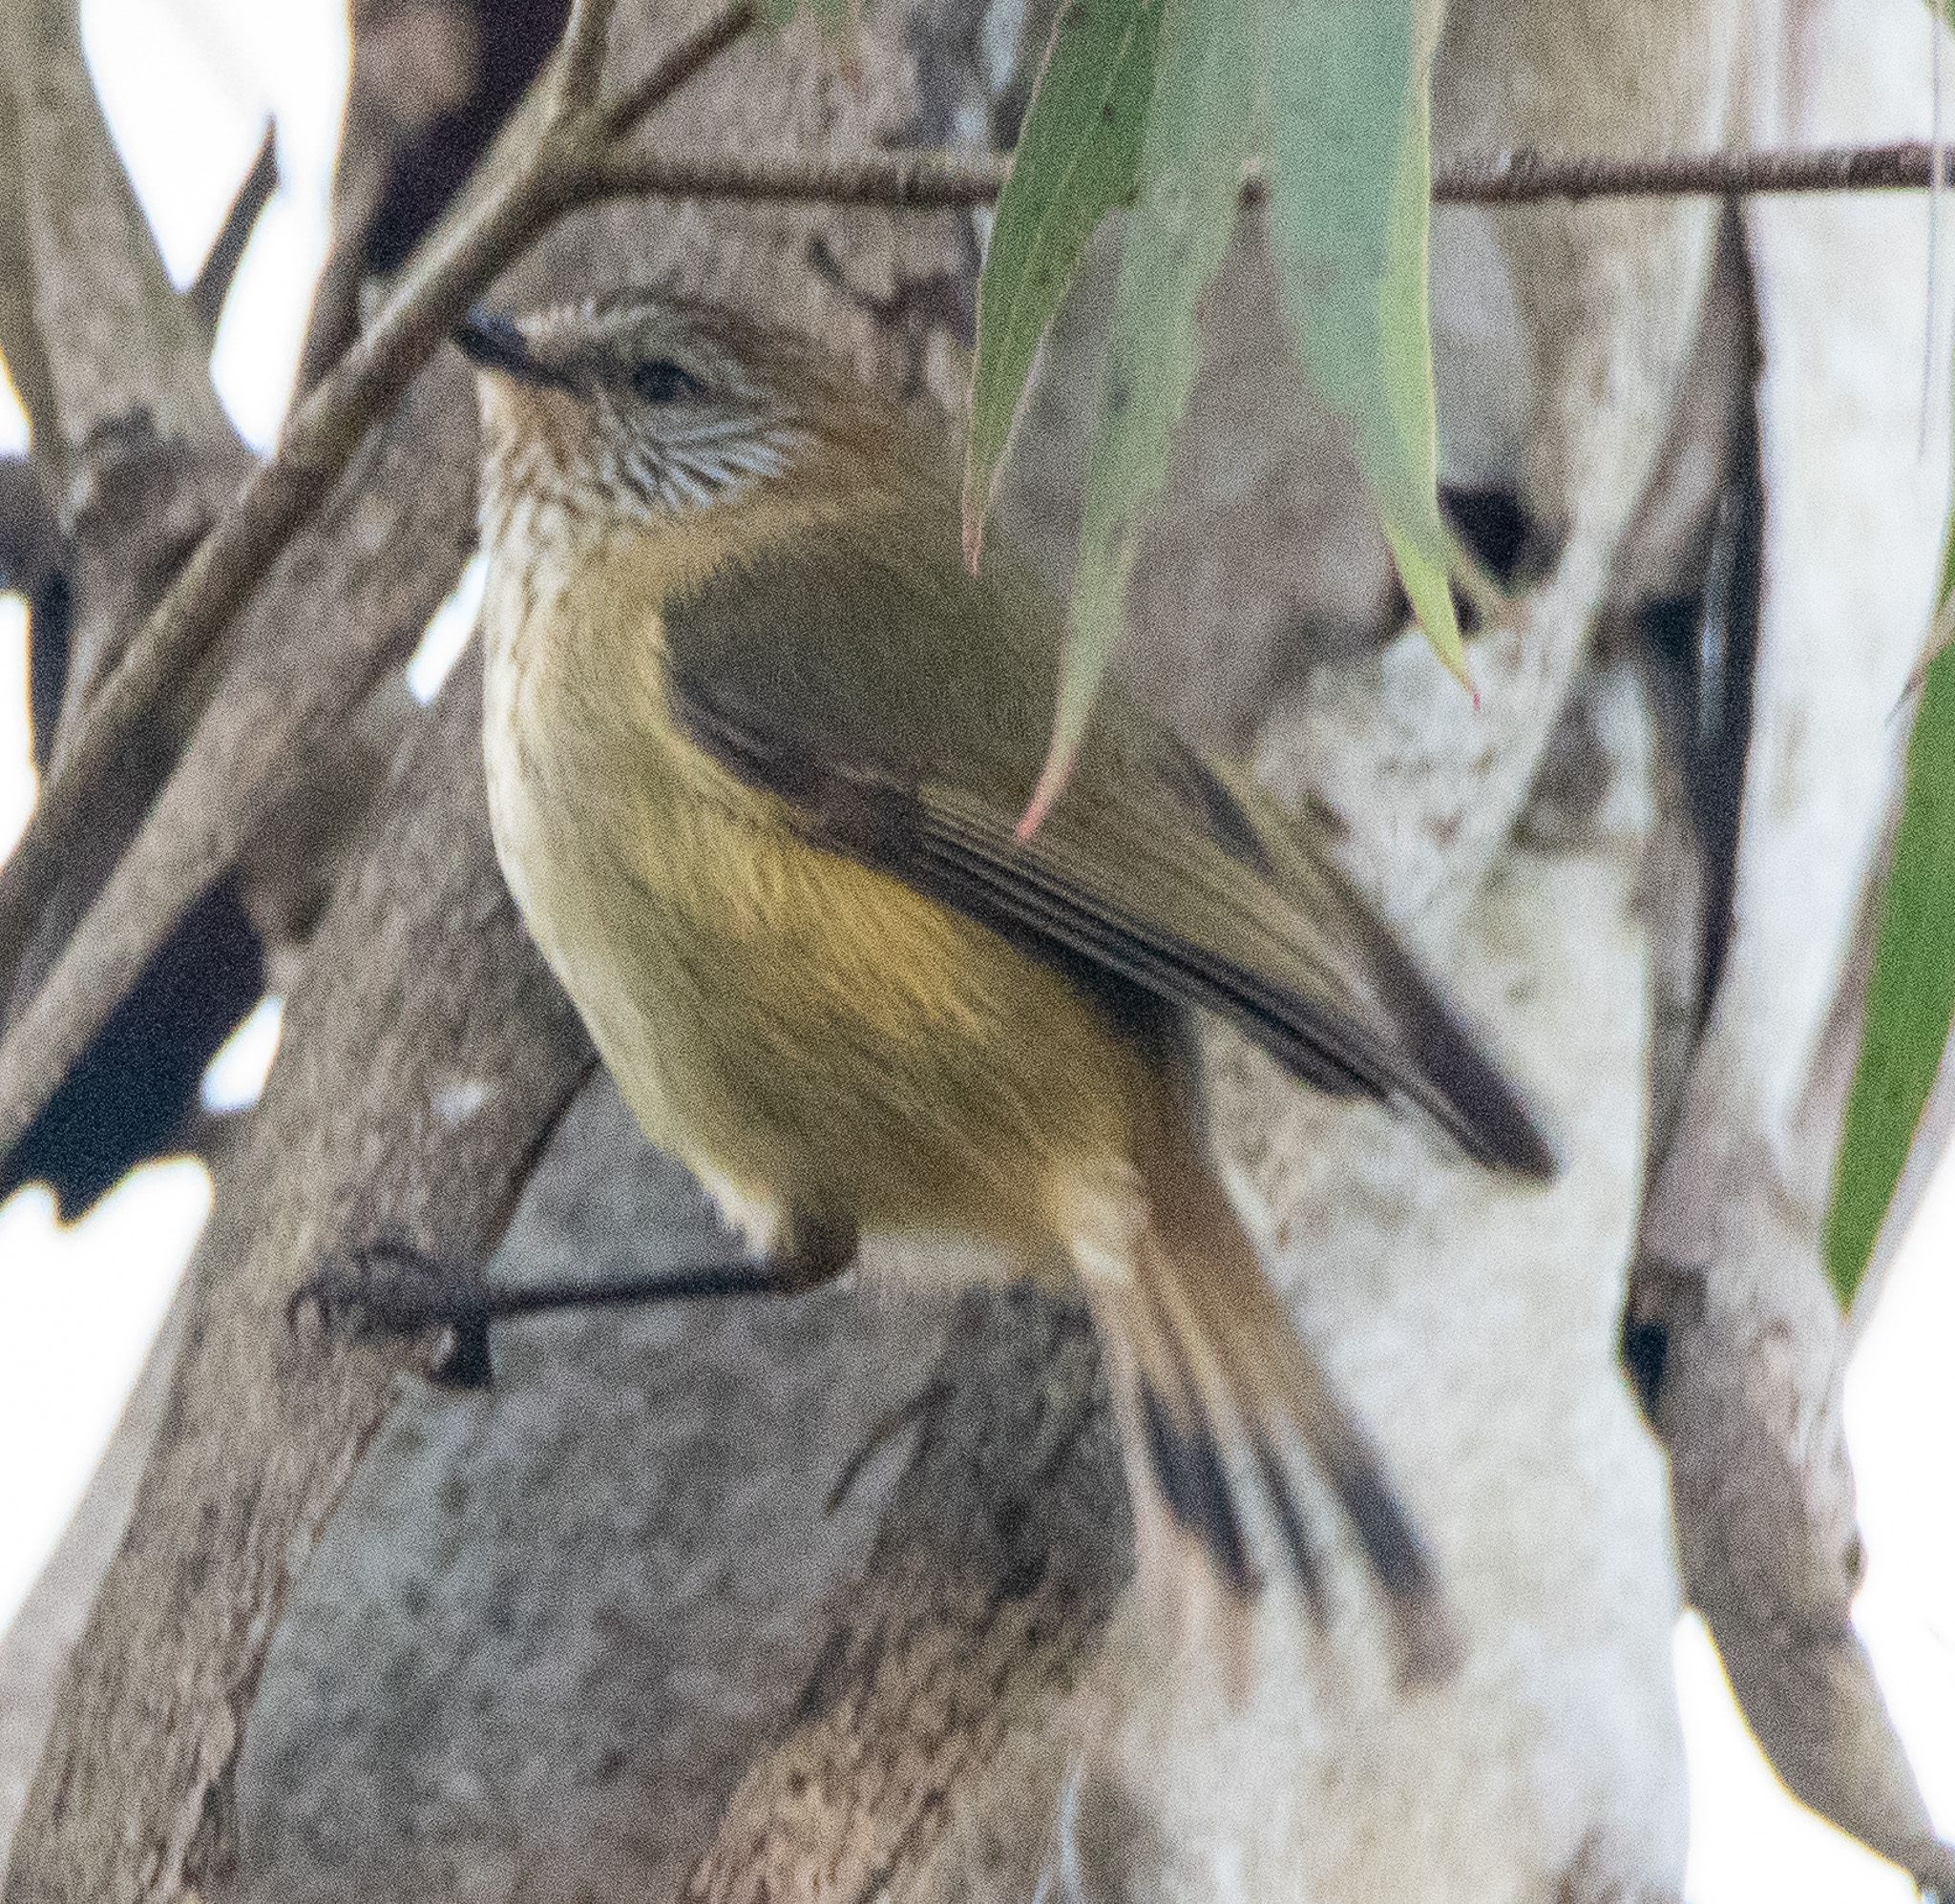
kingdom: Animalia
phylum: Chordata
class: Aves
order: Passeriformes
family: Acanthizidae
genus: Acanthiza
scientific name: Acanthiza lineata
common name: Striated thornbill
